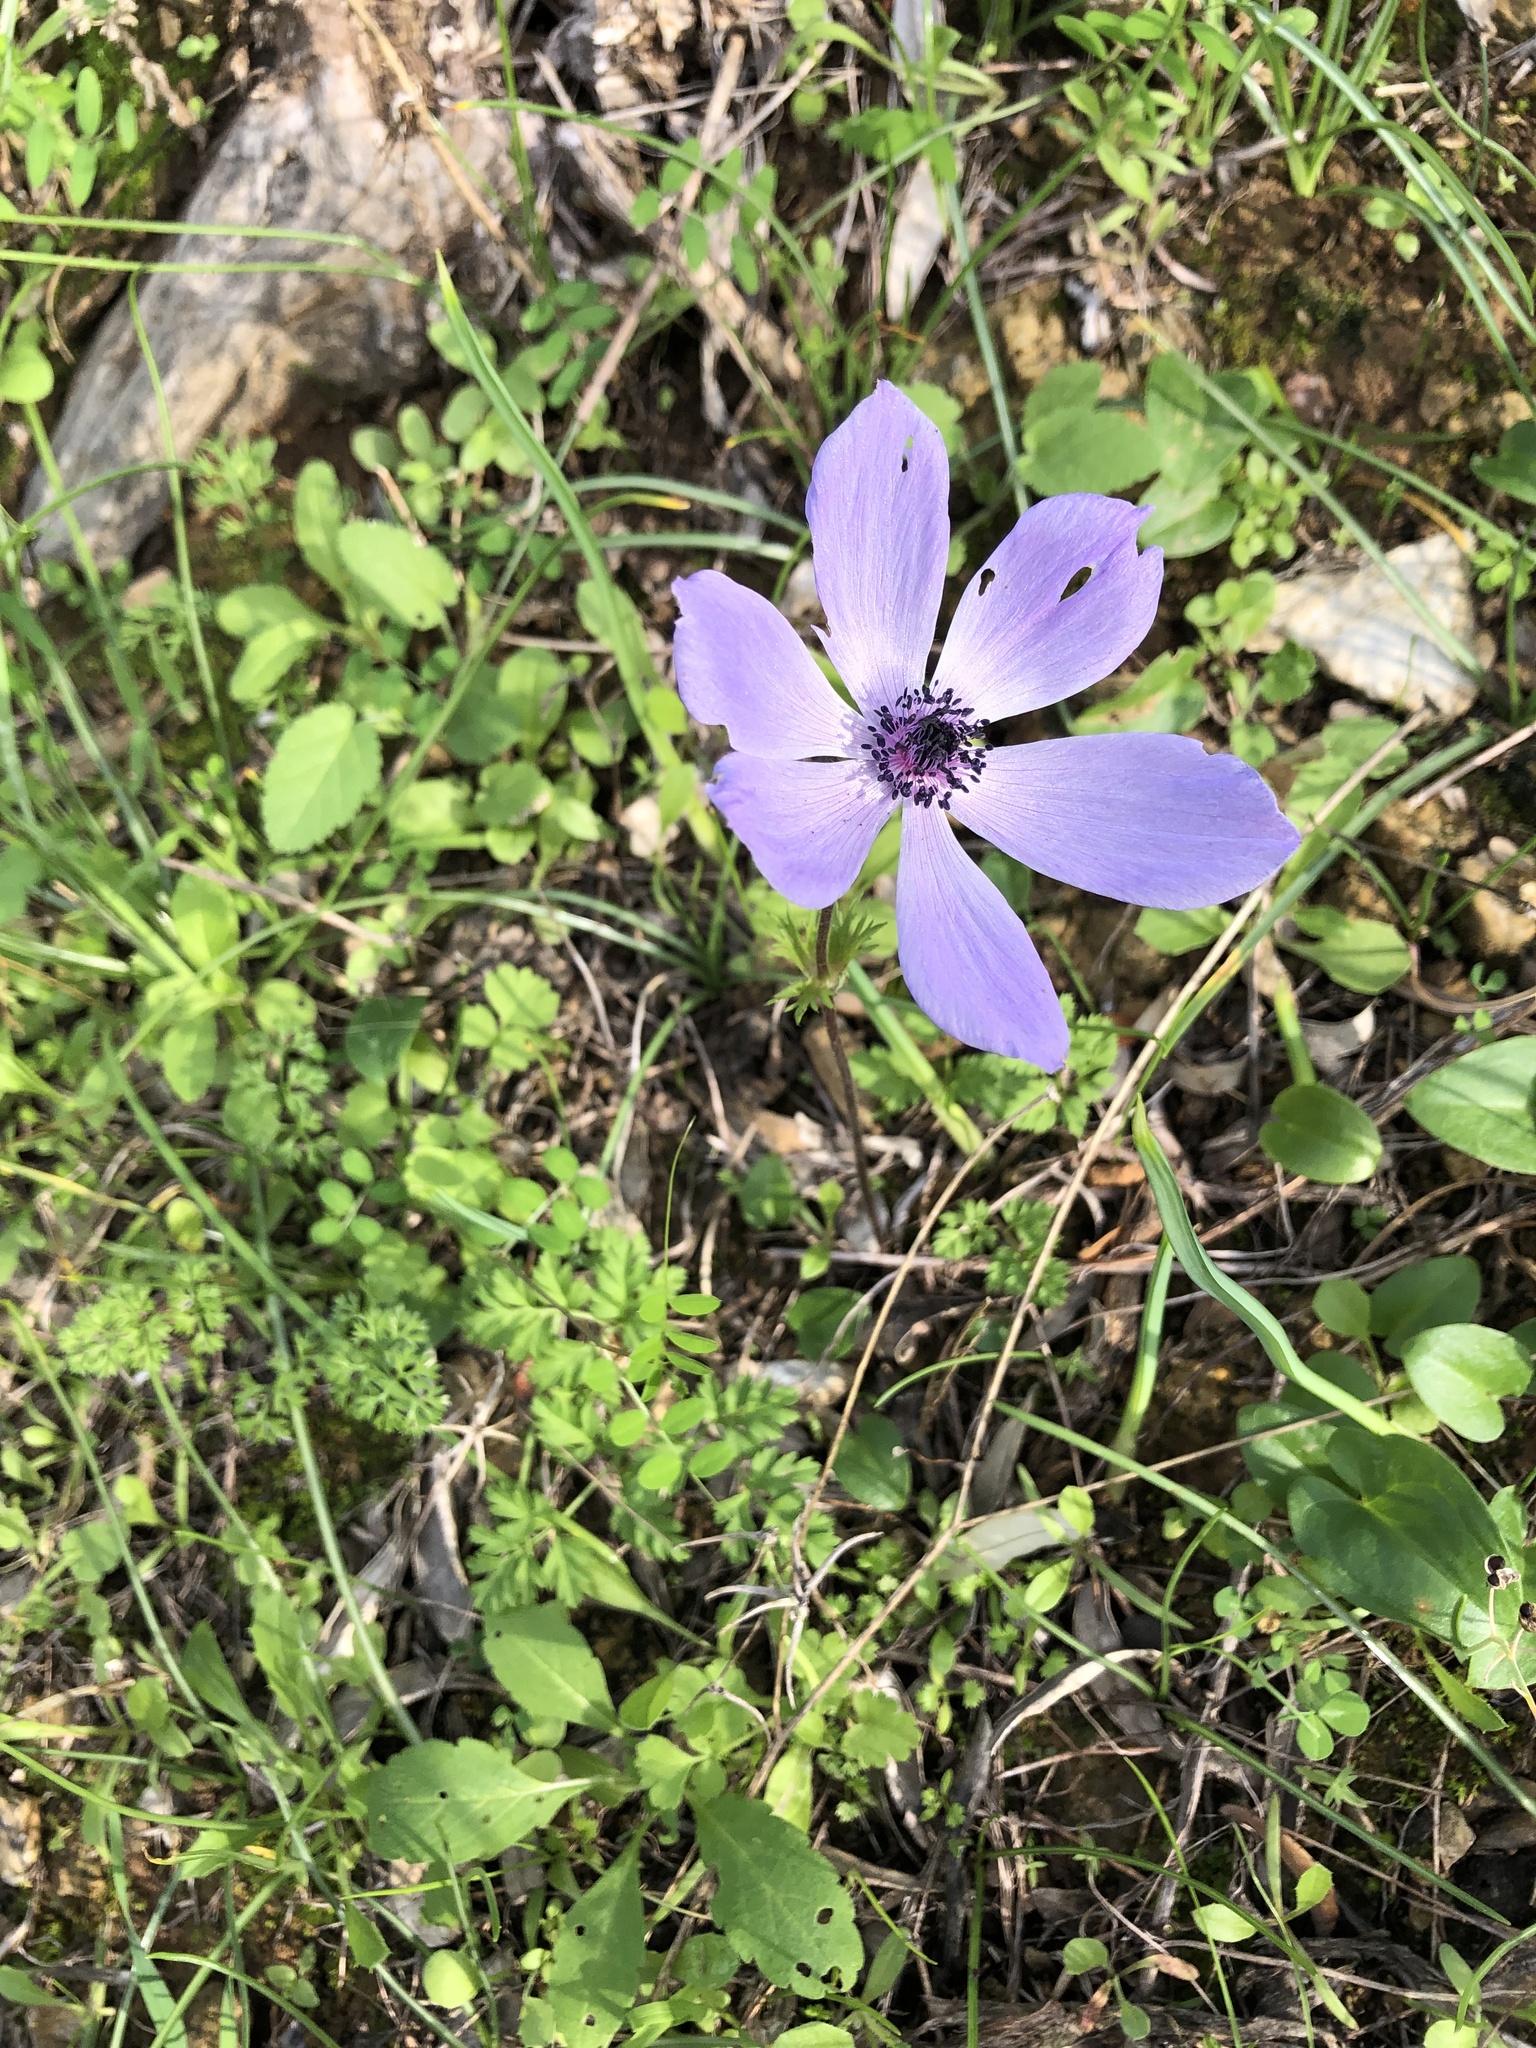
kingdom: Plantae
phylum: Tracheophyta
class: Magnoliopsida
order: Ranunculales
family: Ranunculaceae
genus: Anemone
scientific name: Anemone coronaria
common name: Poppy anemone
